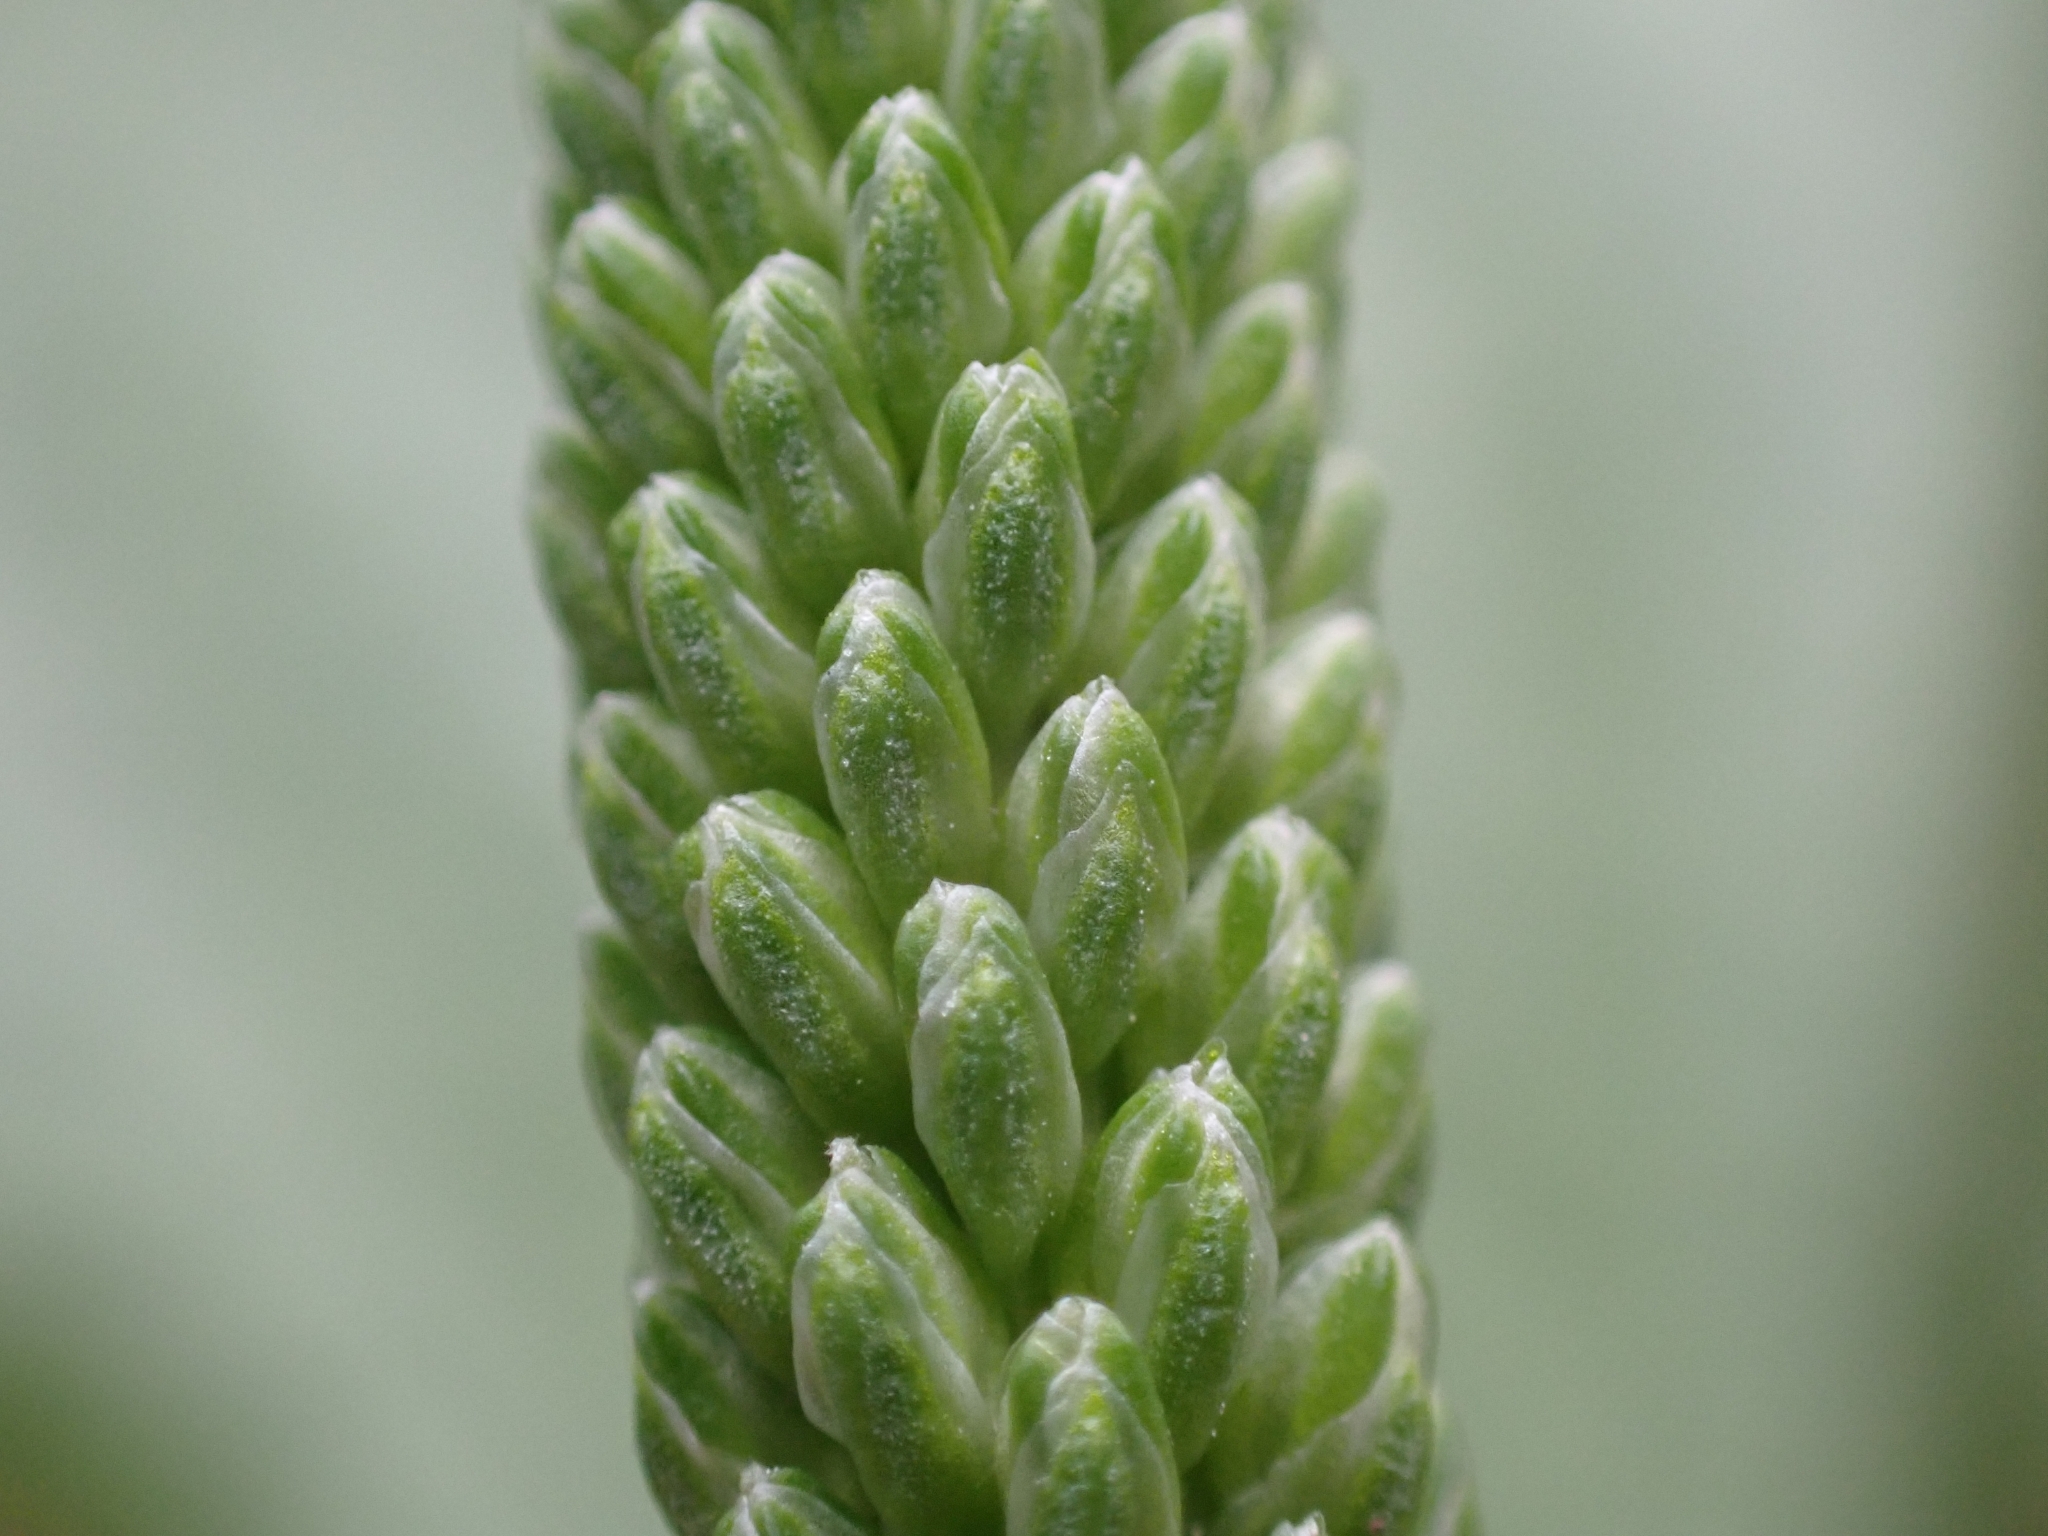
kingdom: Plantae
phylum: Tracheophyta
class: Magnoliopsida
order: Lamiales
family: Plantaginaceae
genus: Plantago
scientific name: Plantago major
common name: Common plantain
